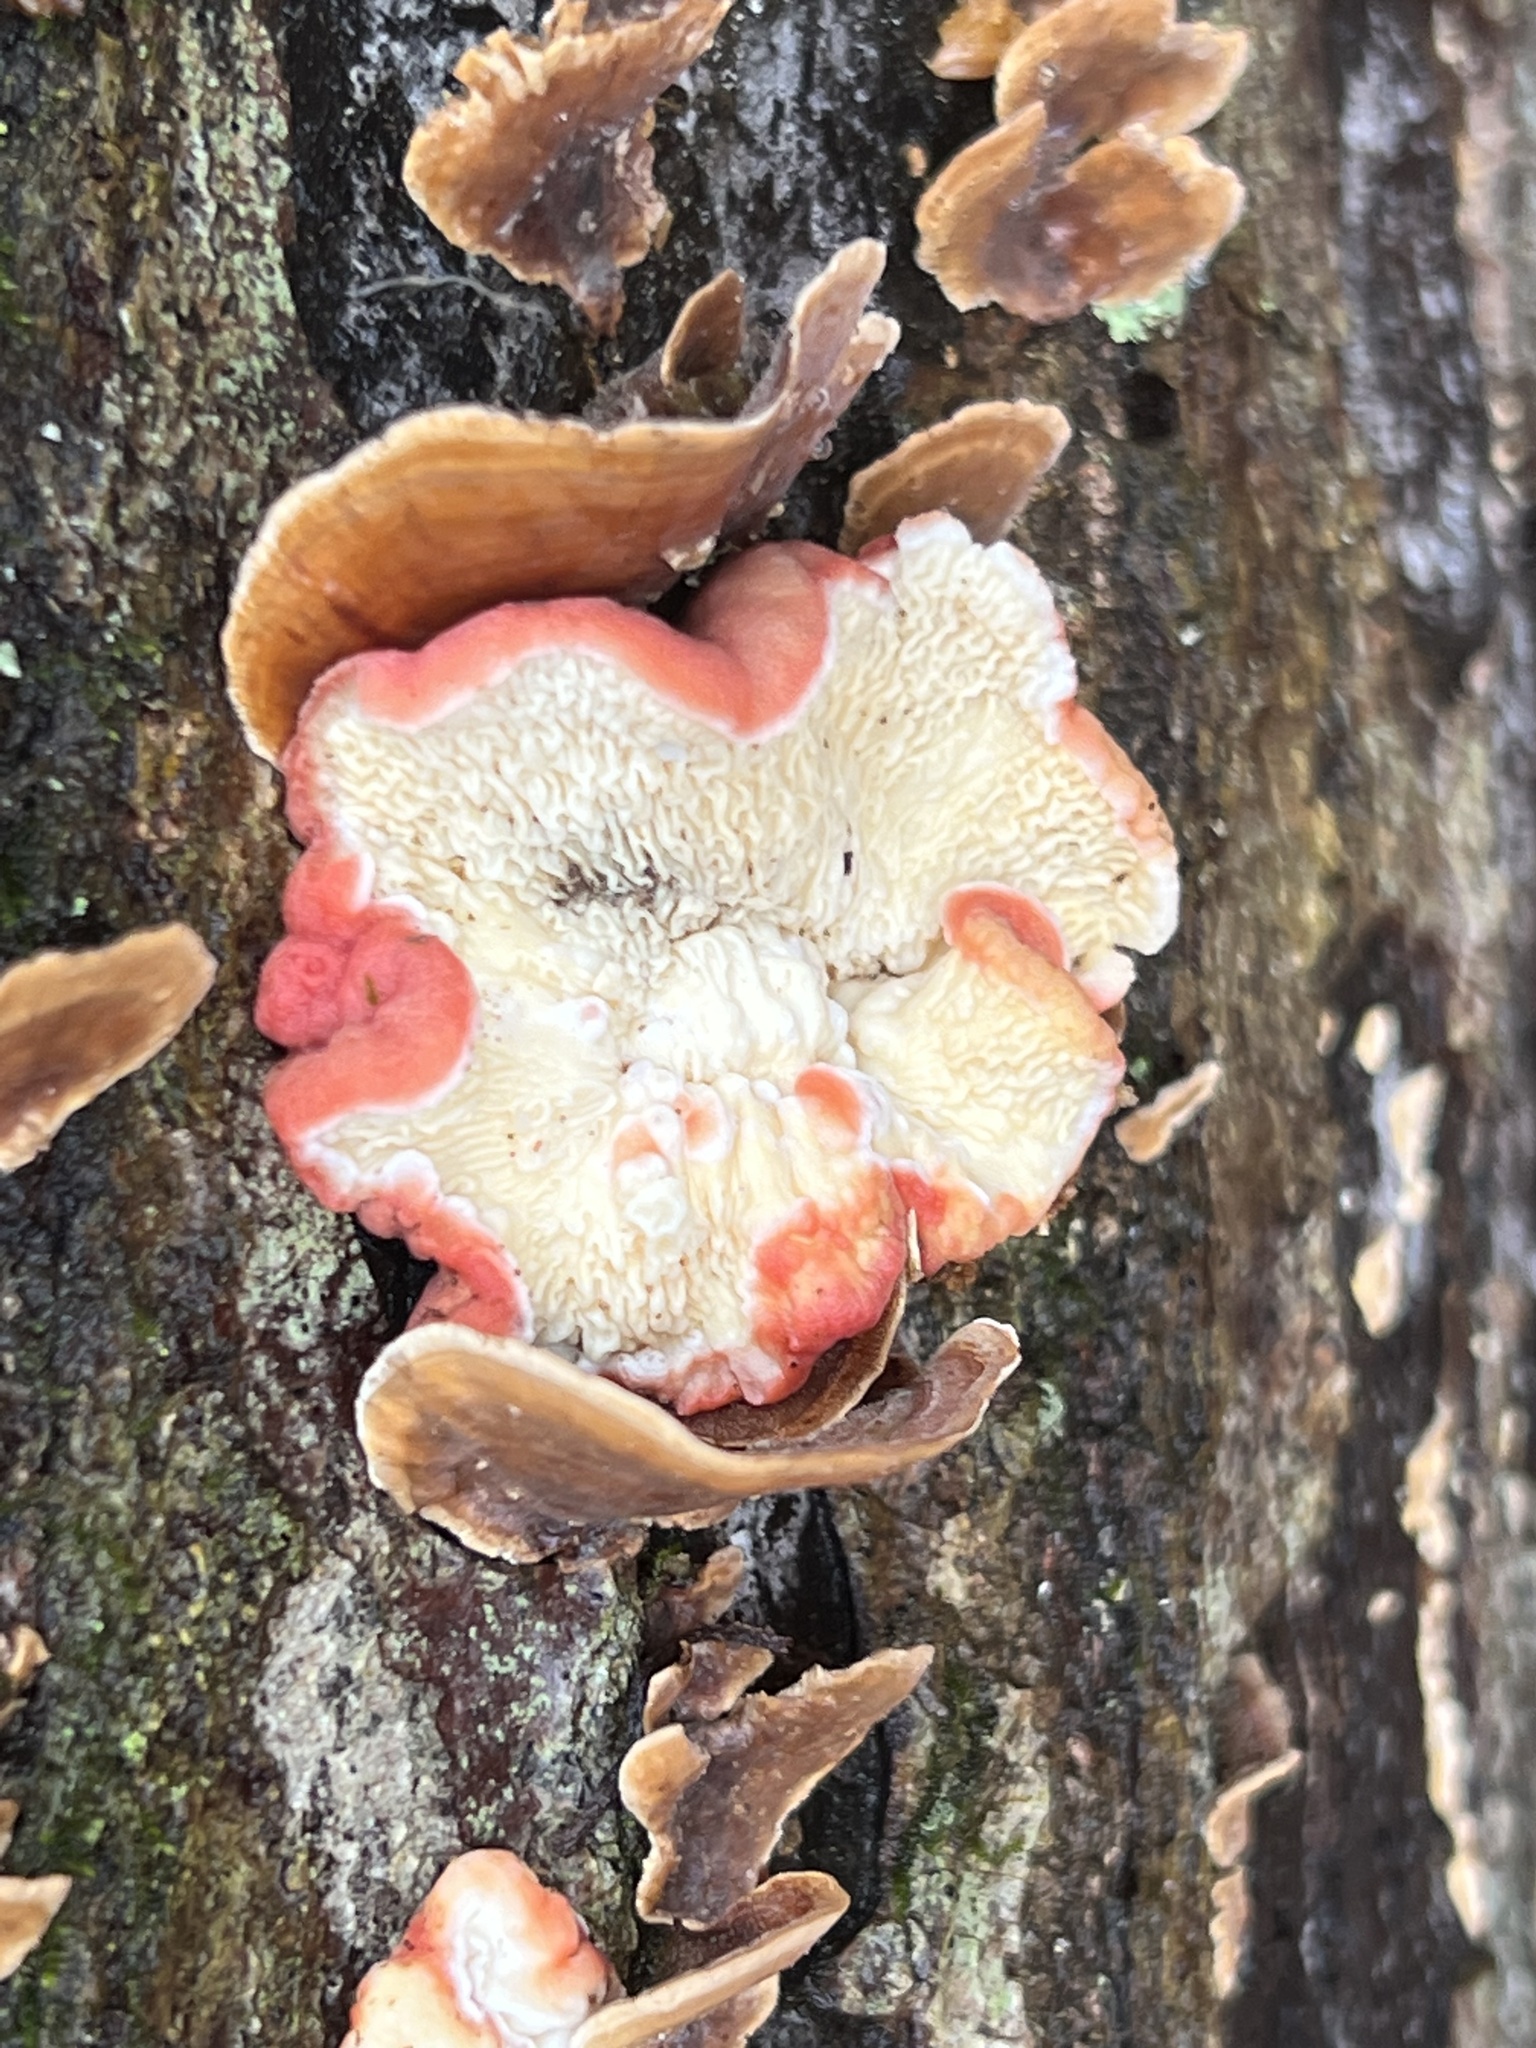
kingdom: Fungi
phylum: Basidiomycota
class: Agaricomycetes
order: Polyporales
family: Irpicaceae
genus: Byssomerulius
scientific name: Byssomerulius incarnatus
